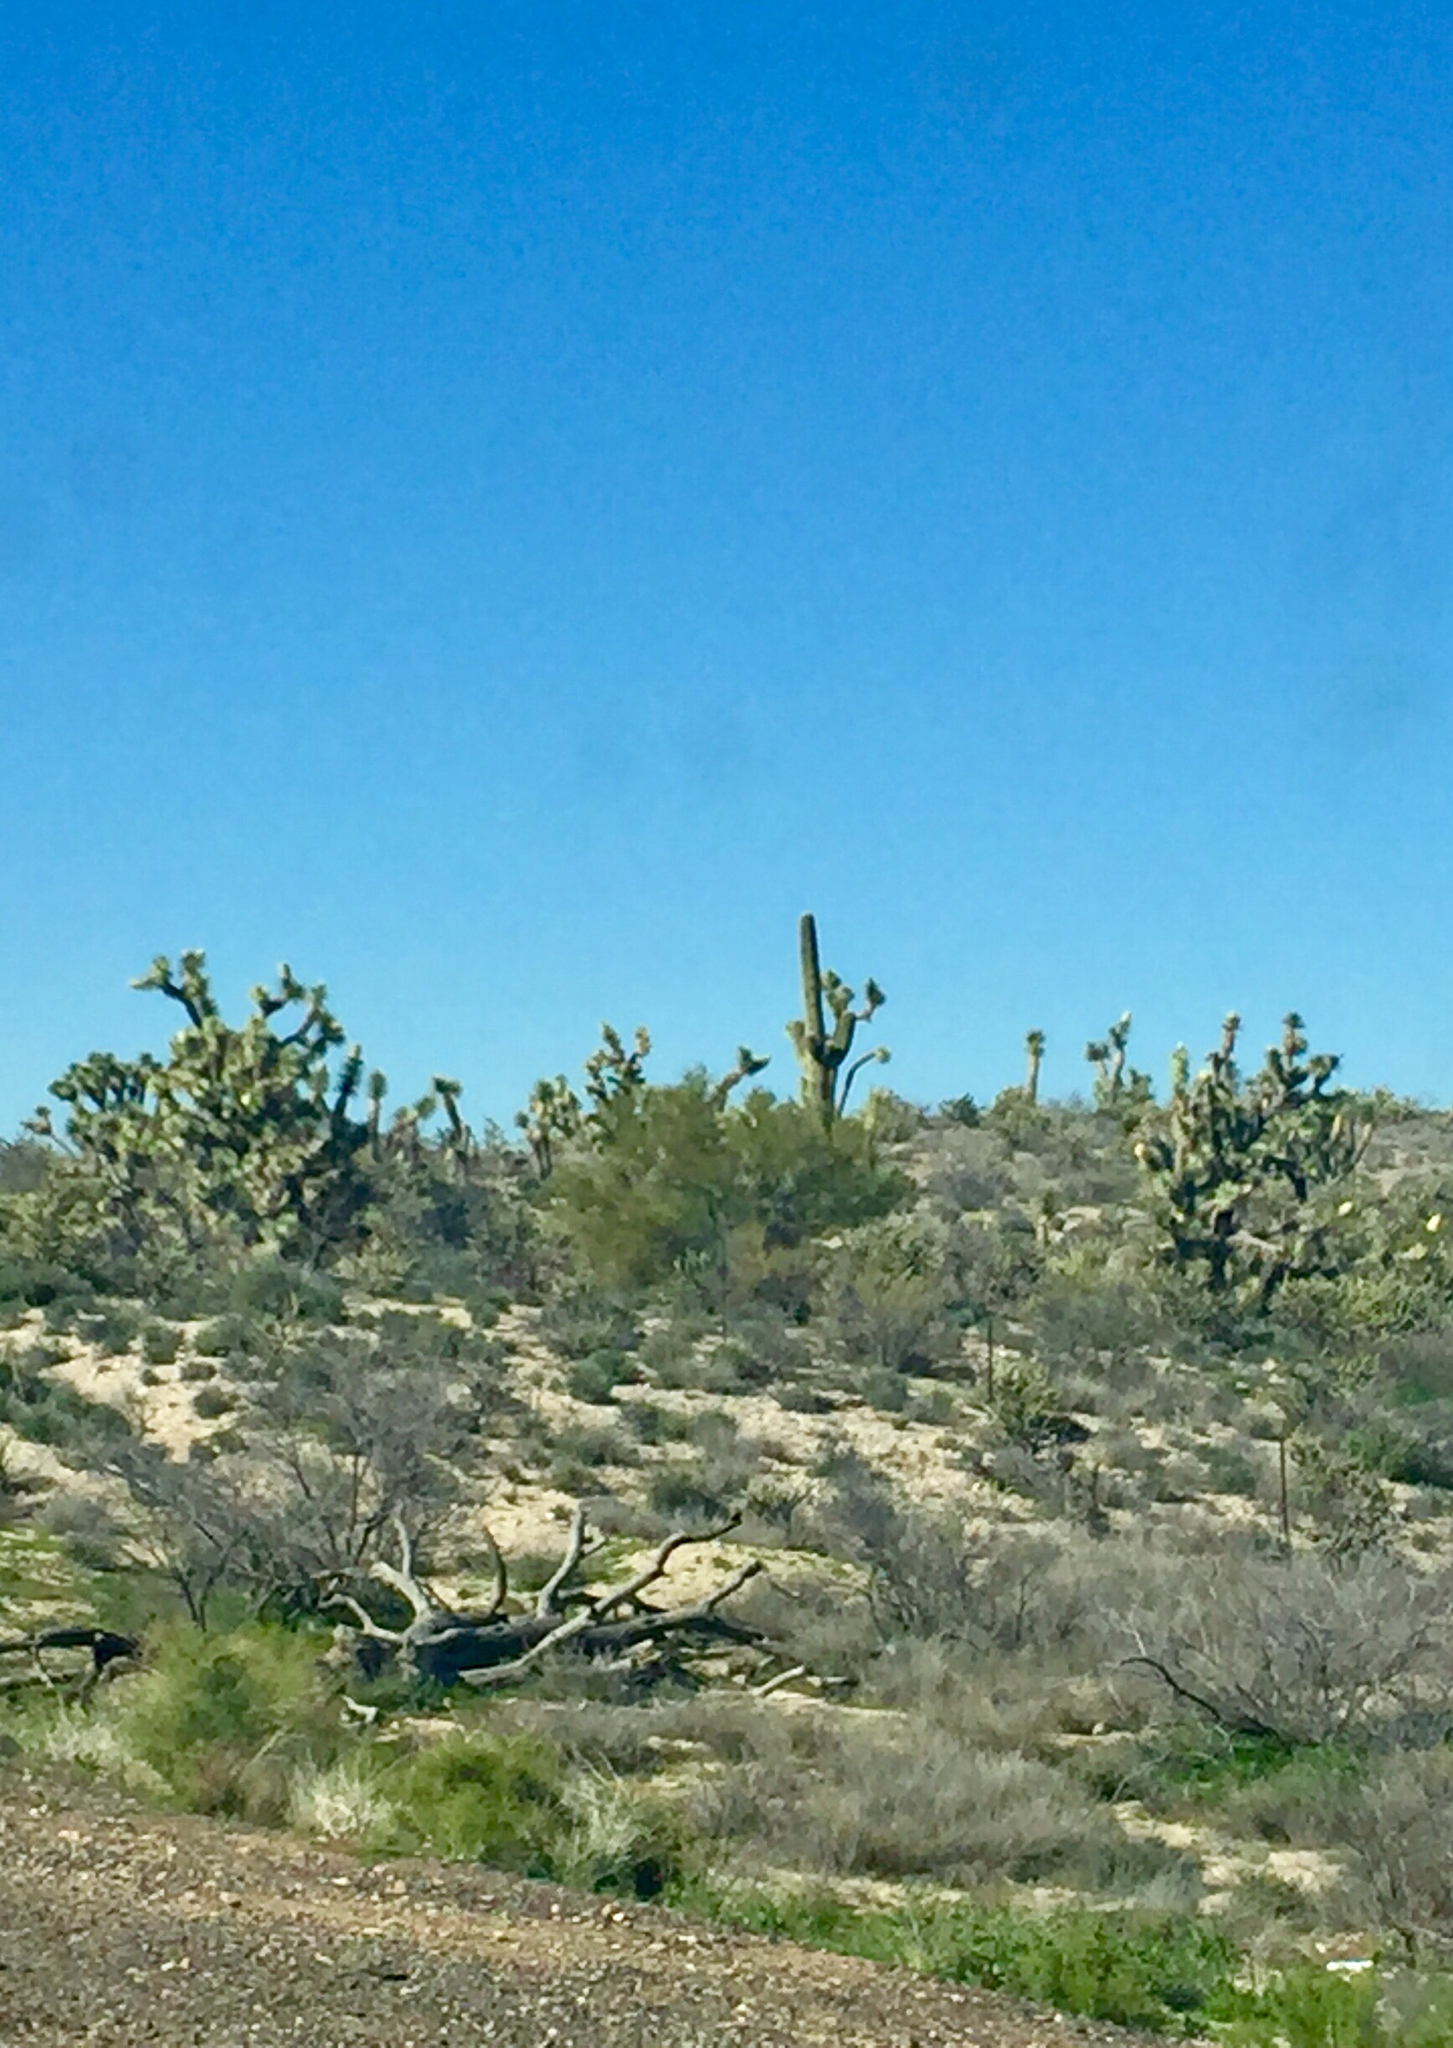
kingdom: Plantae
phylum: Tracheophyta
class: Magnoliopsida
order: Caryophyllales
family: Cactaceae
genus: Carnegiea
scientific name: Carnegiea gigantea
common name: Saguaro
